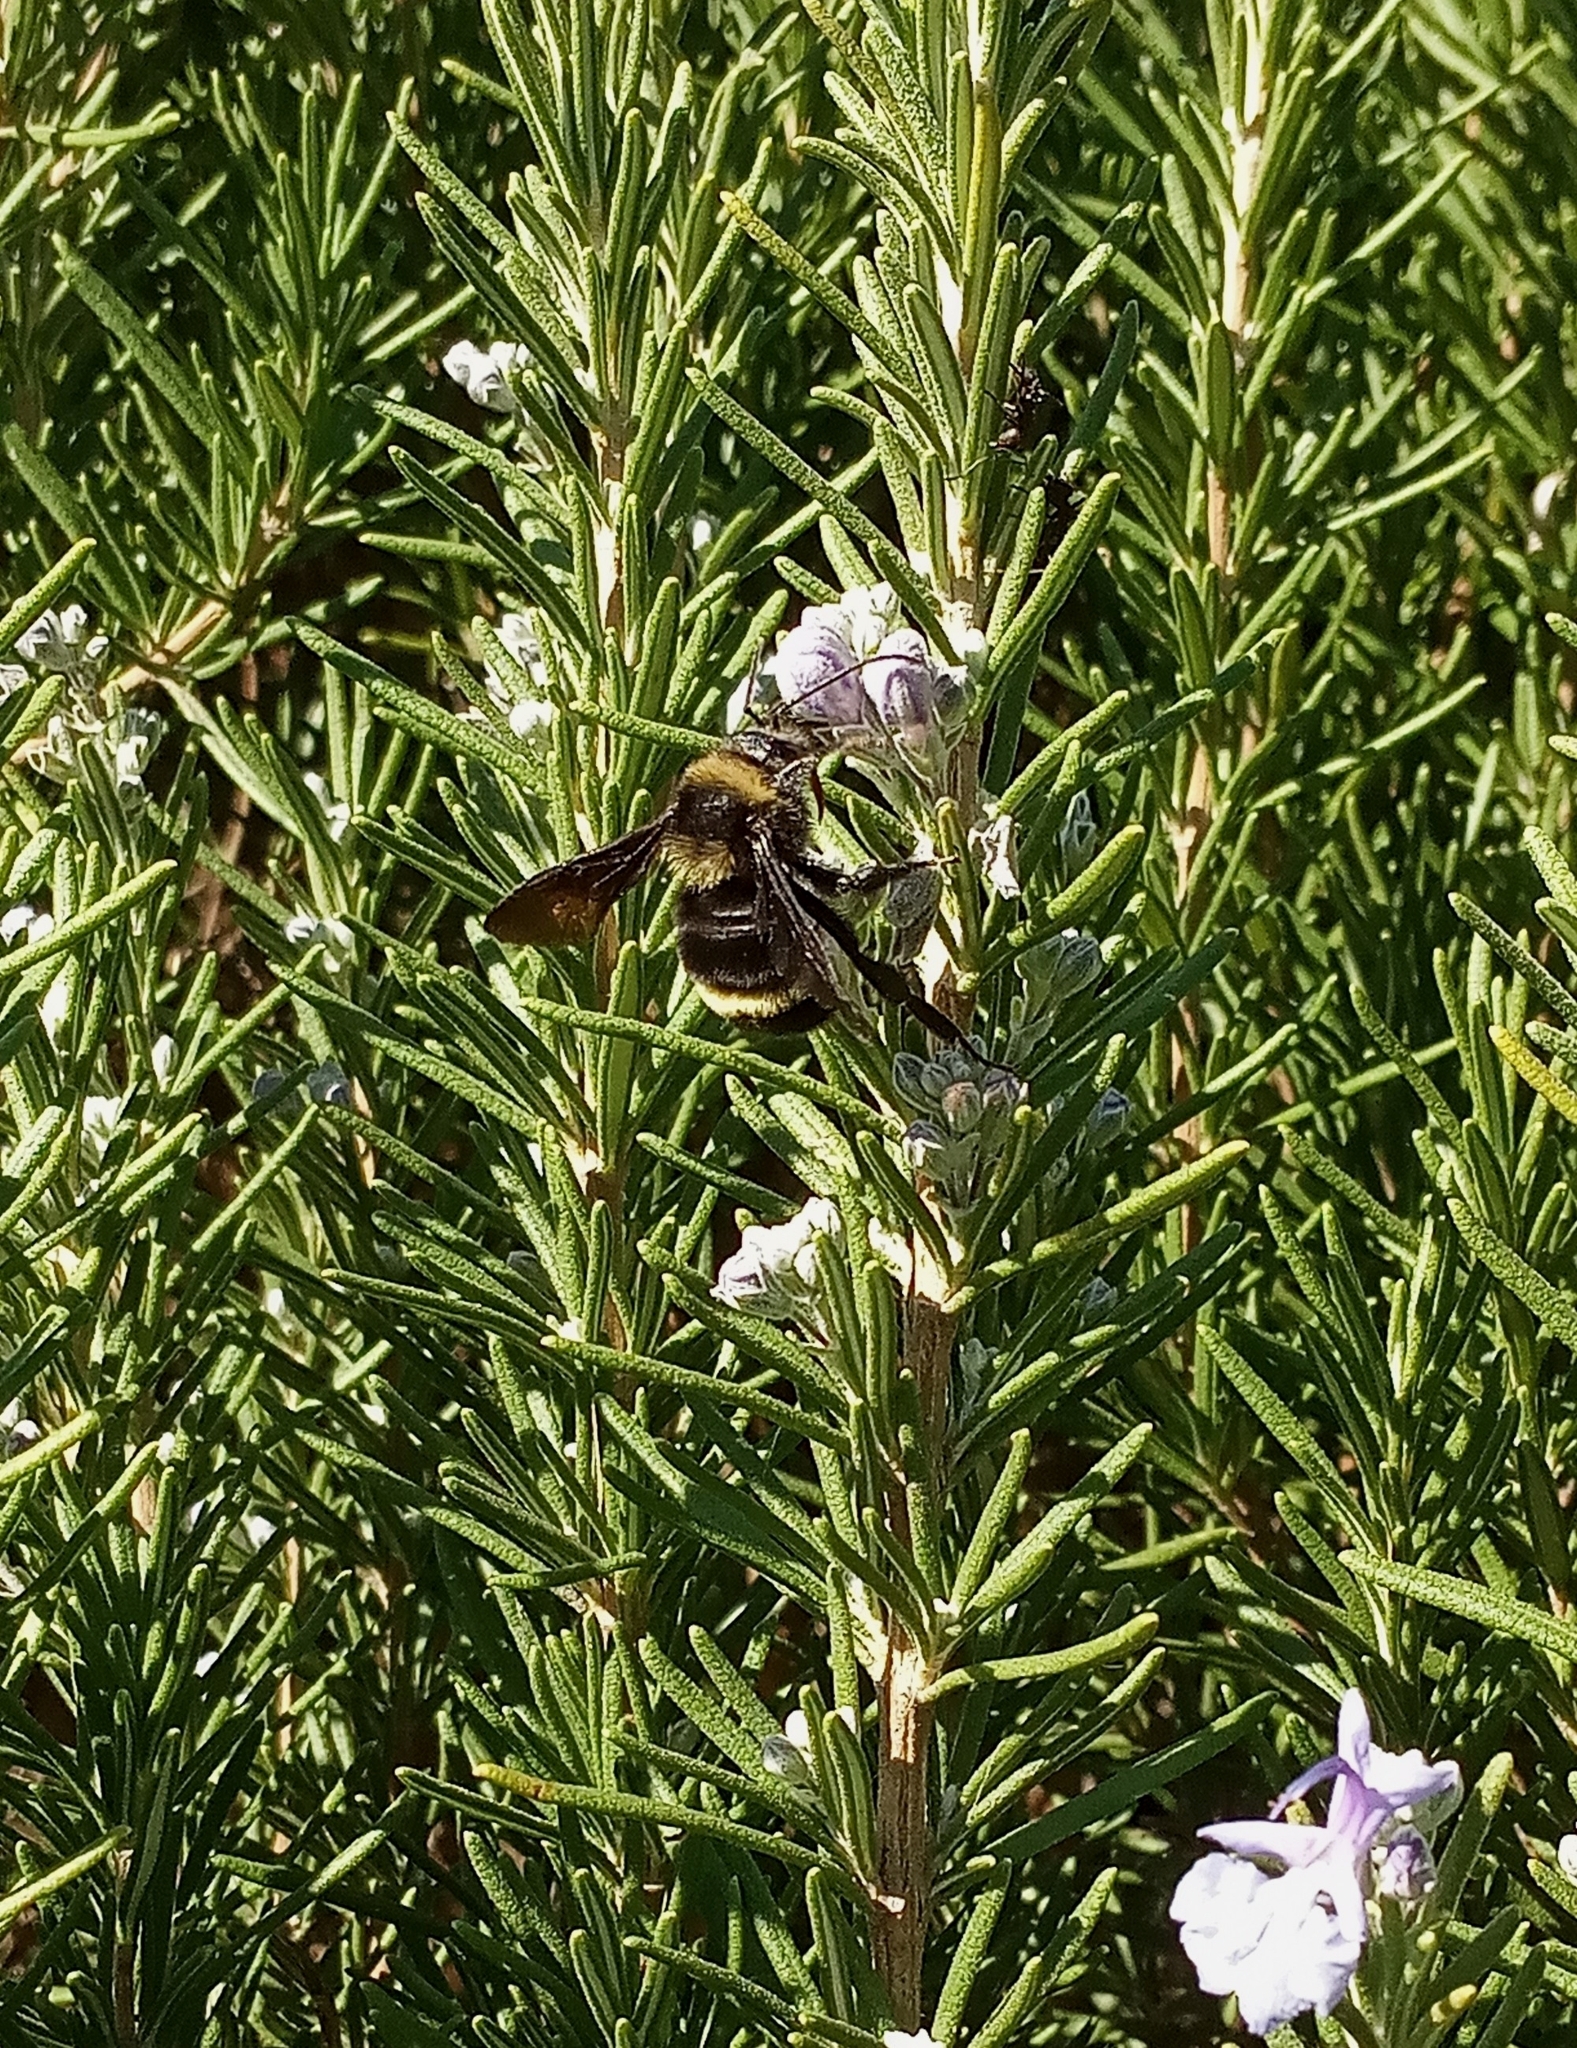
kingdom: Animalia
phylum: Arthropoda
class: Insecta
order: Hymenoptera
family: Apidae
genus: Bombus
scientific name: Bombus pauloensis
